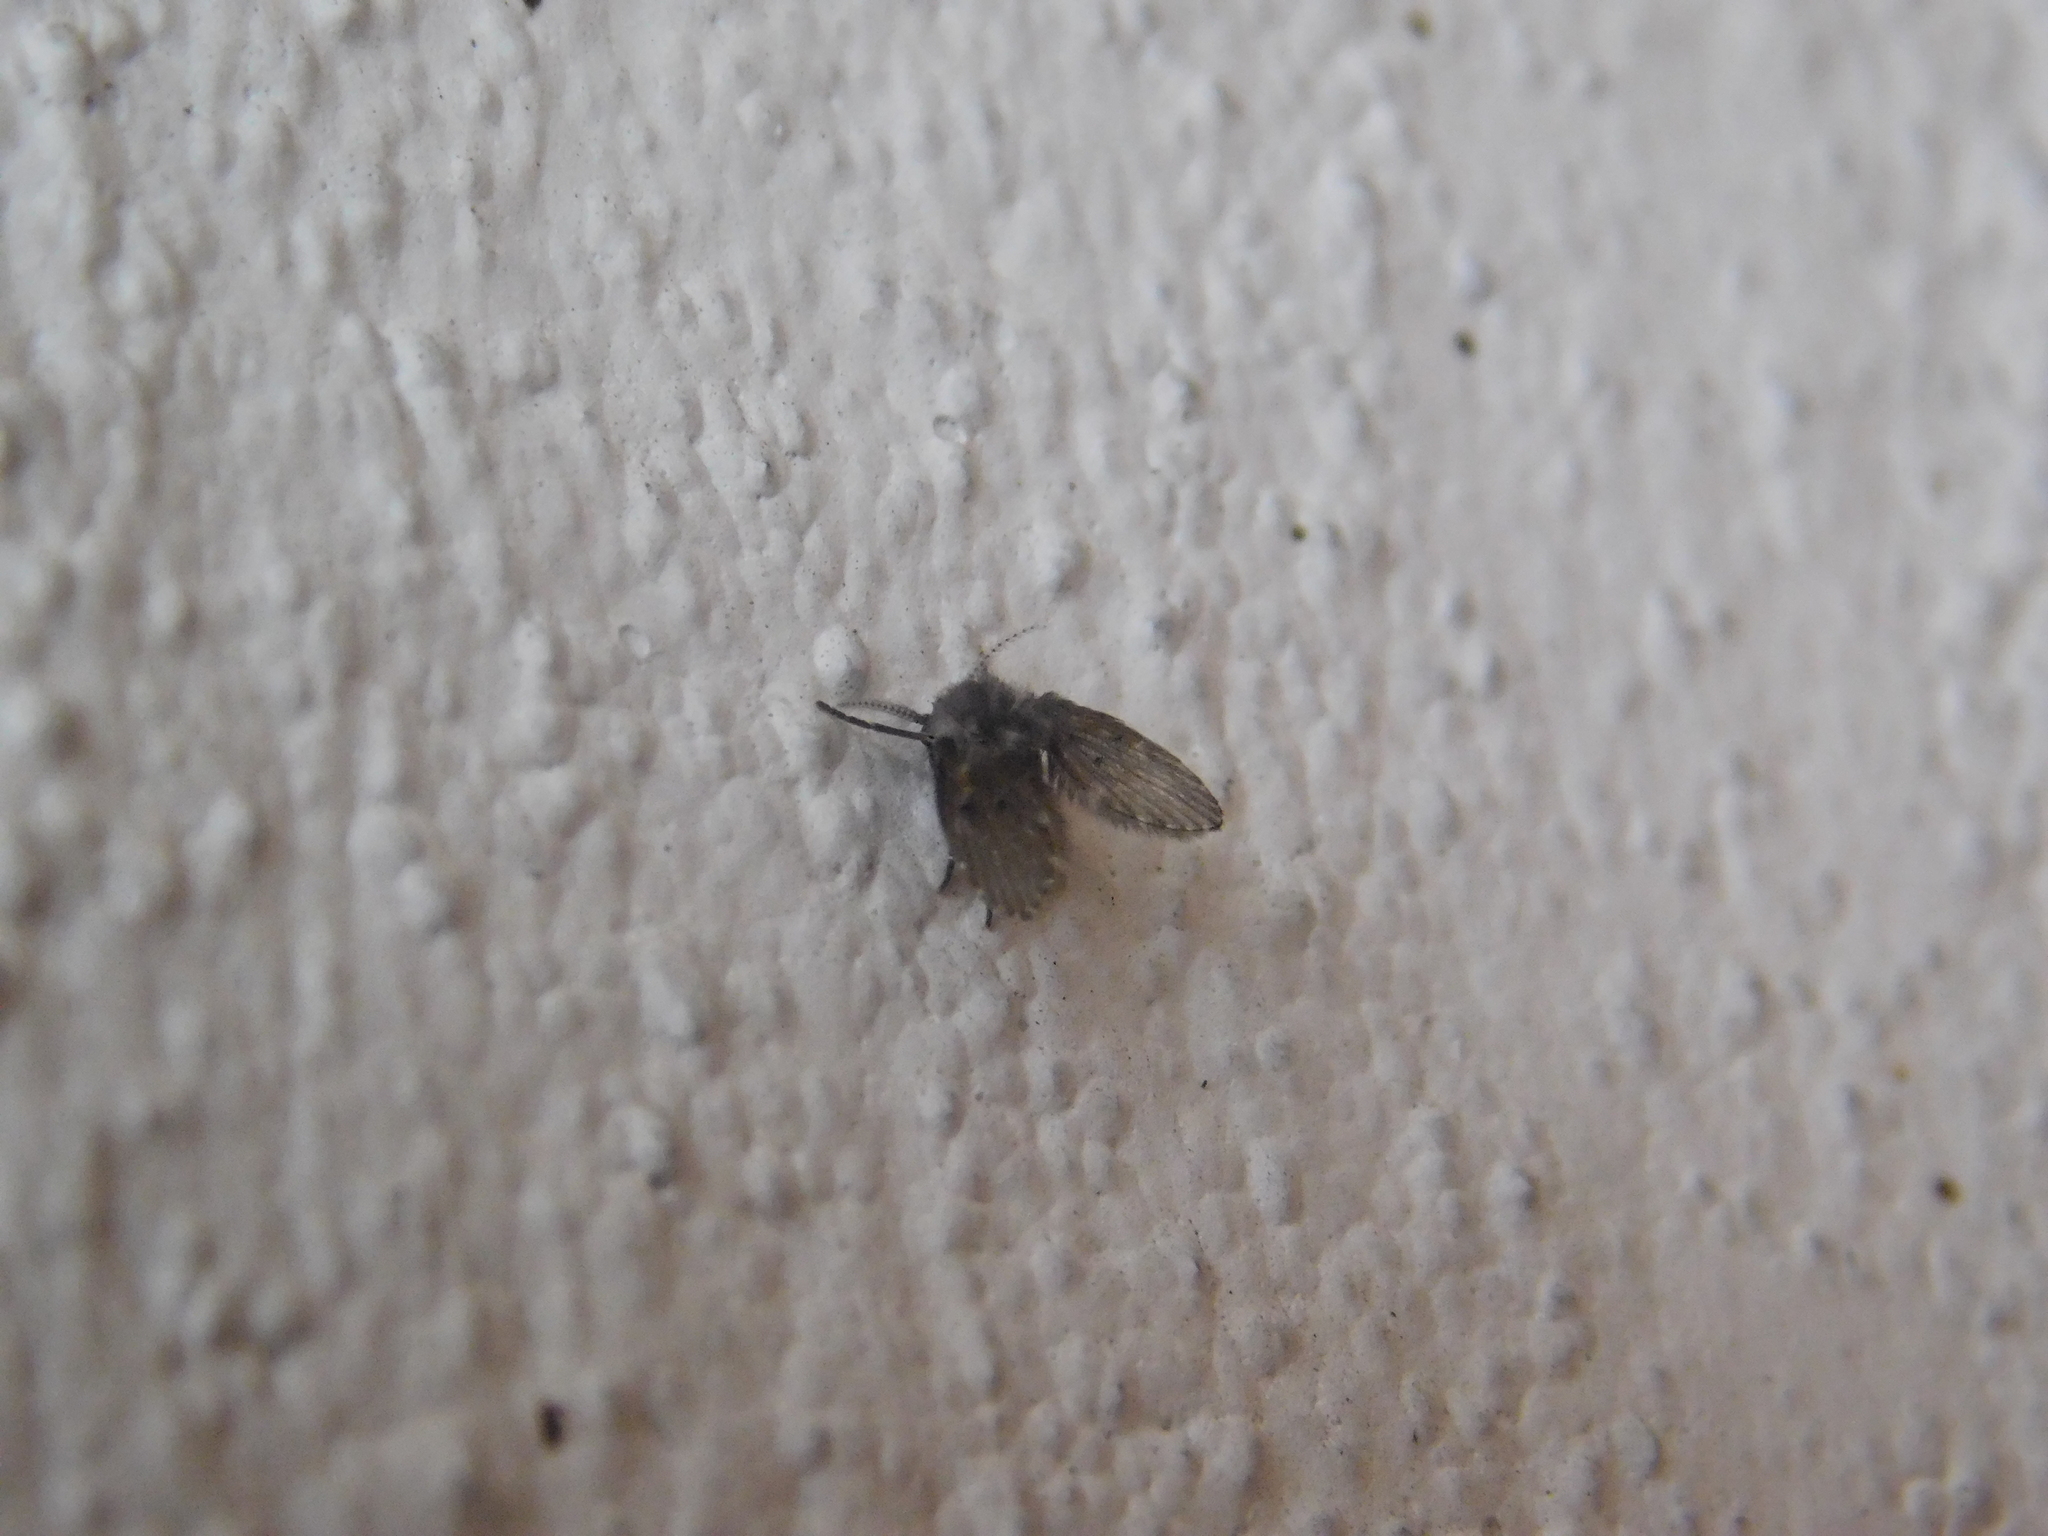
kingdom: Animalia
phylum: Arthropoda
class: Insecta
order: Diptera
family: Psychodidae
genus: Clogmia
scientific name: Clogmia albipunctatus
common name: White-spotted moth fly
